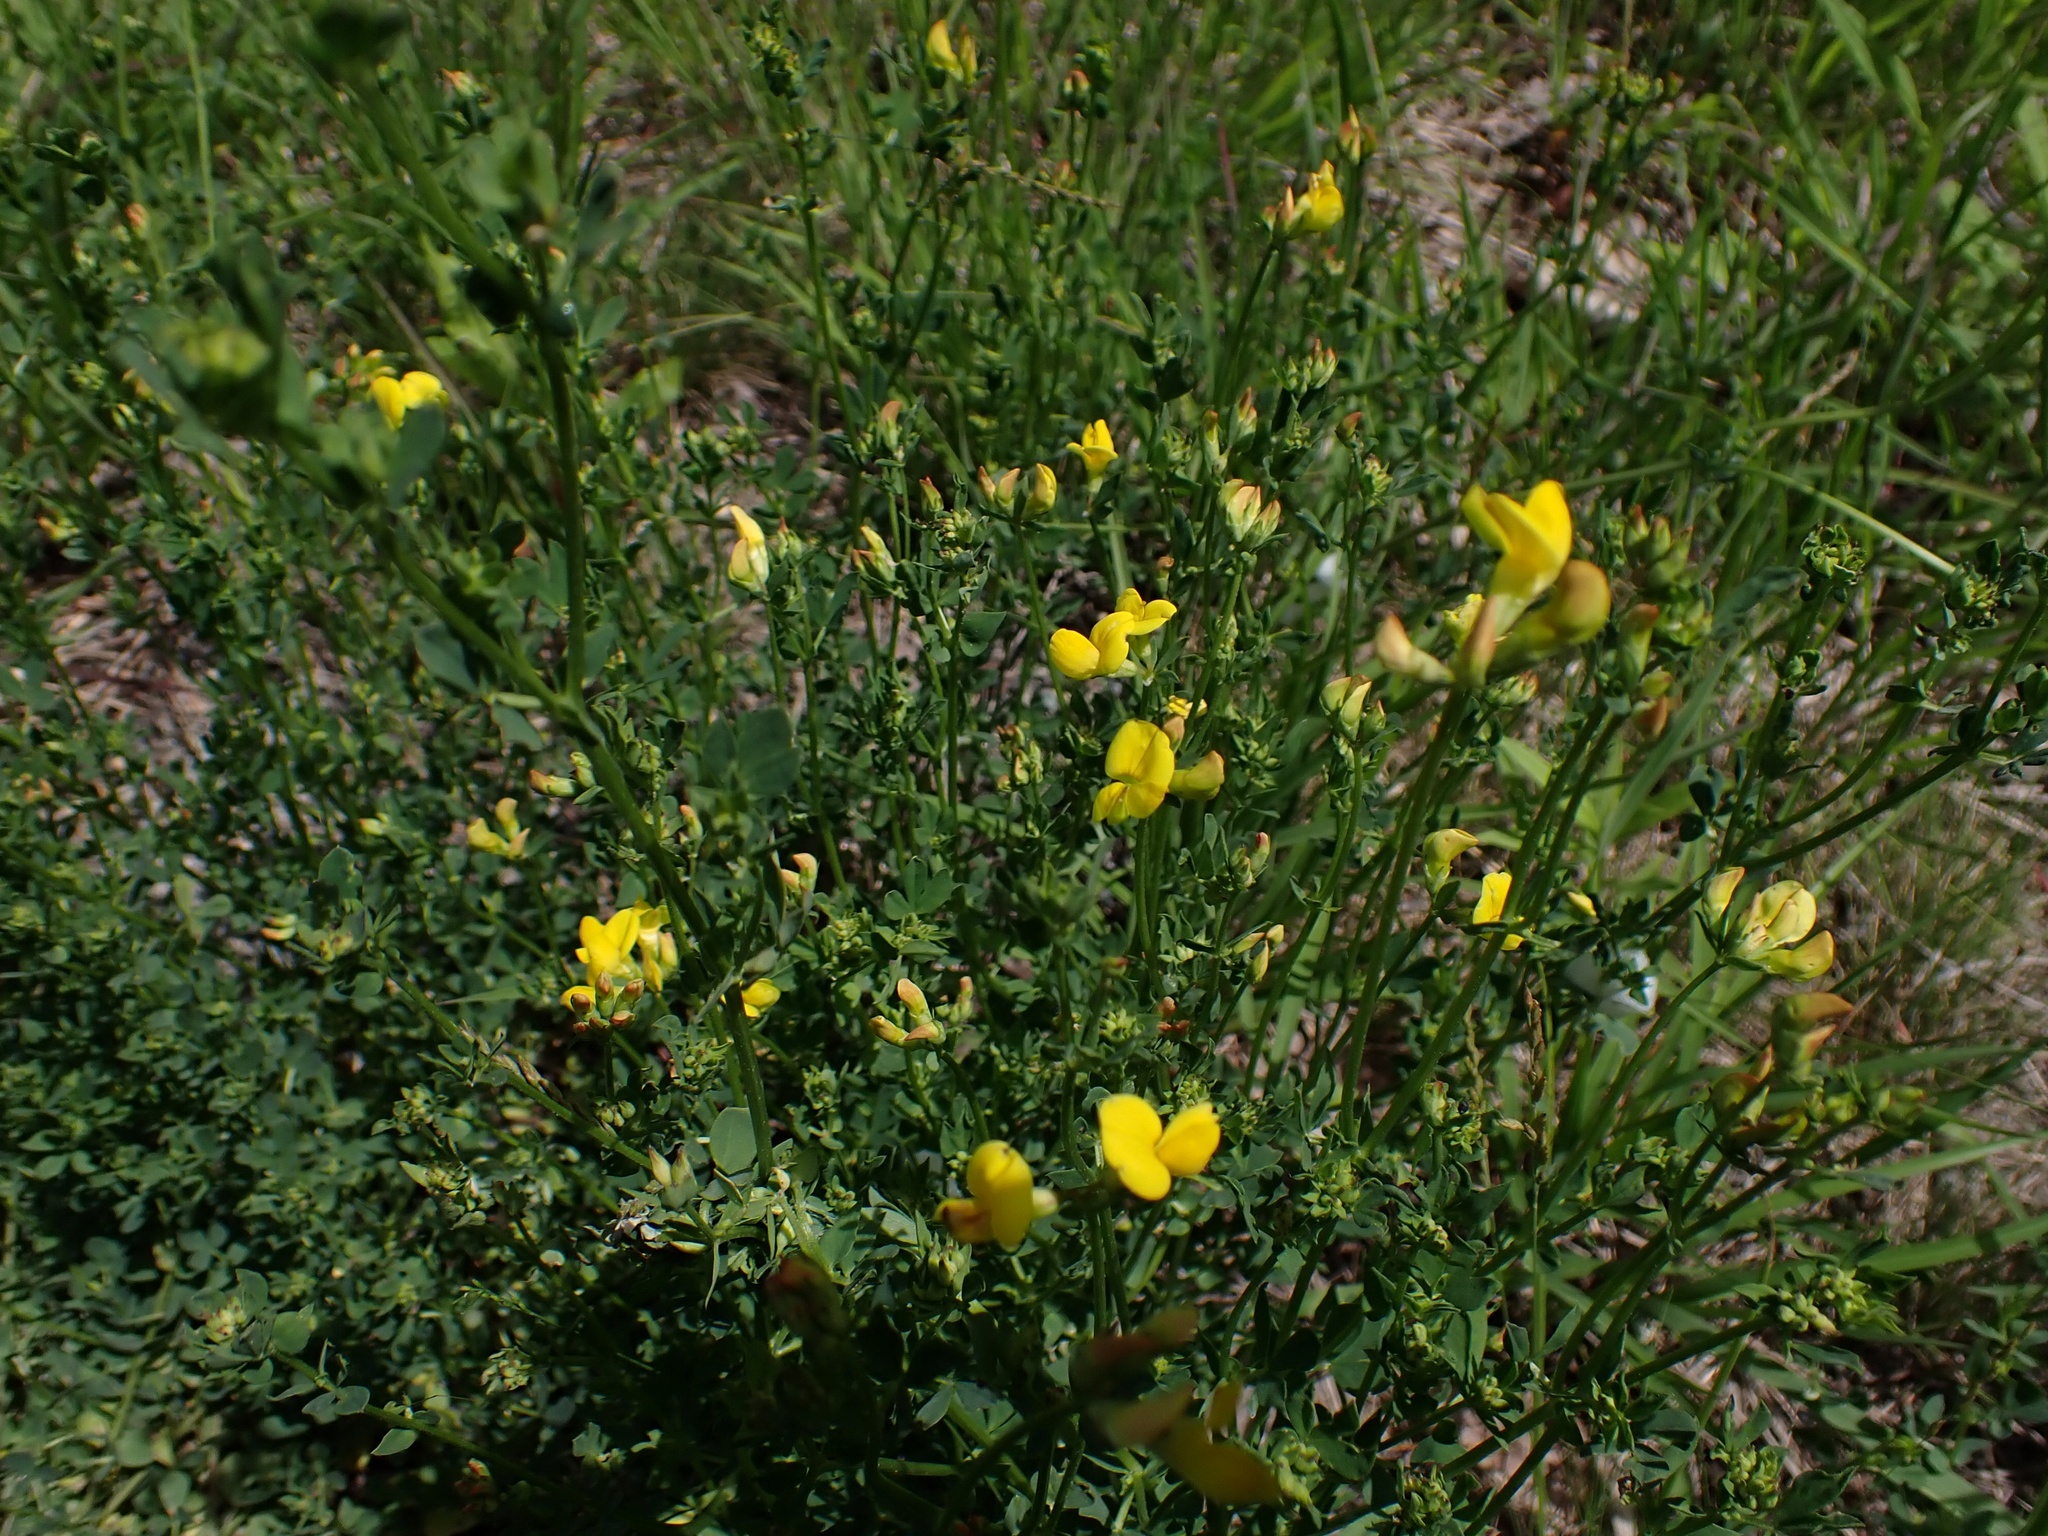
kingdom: Plantae
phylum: Tracheophyta
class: Magnoliopsida
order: Fabales
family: Fabaceae
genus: Lotus
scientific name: Lotus corniculatus
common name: Common bird's-foot-trefoil
